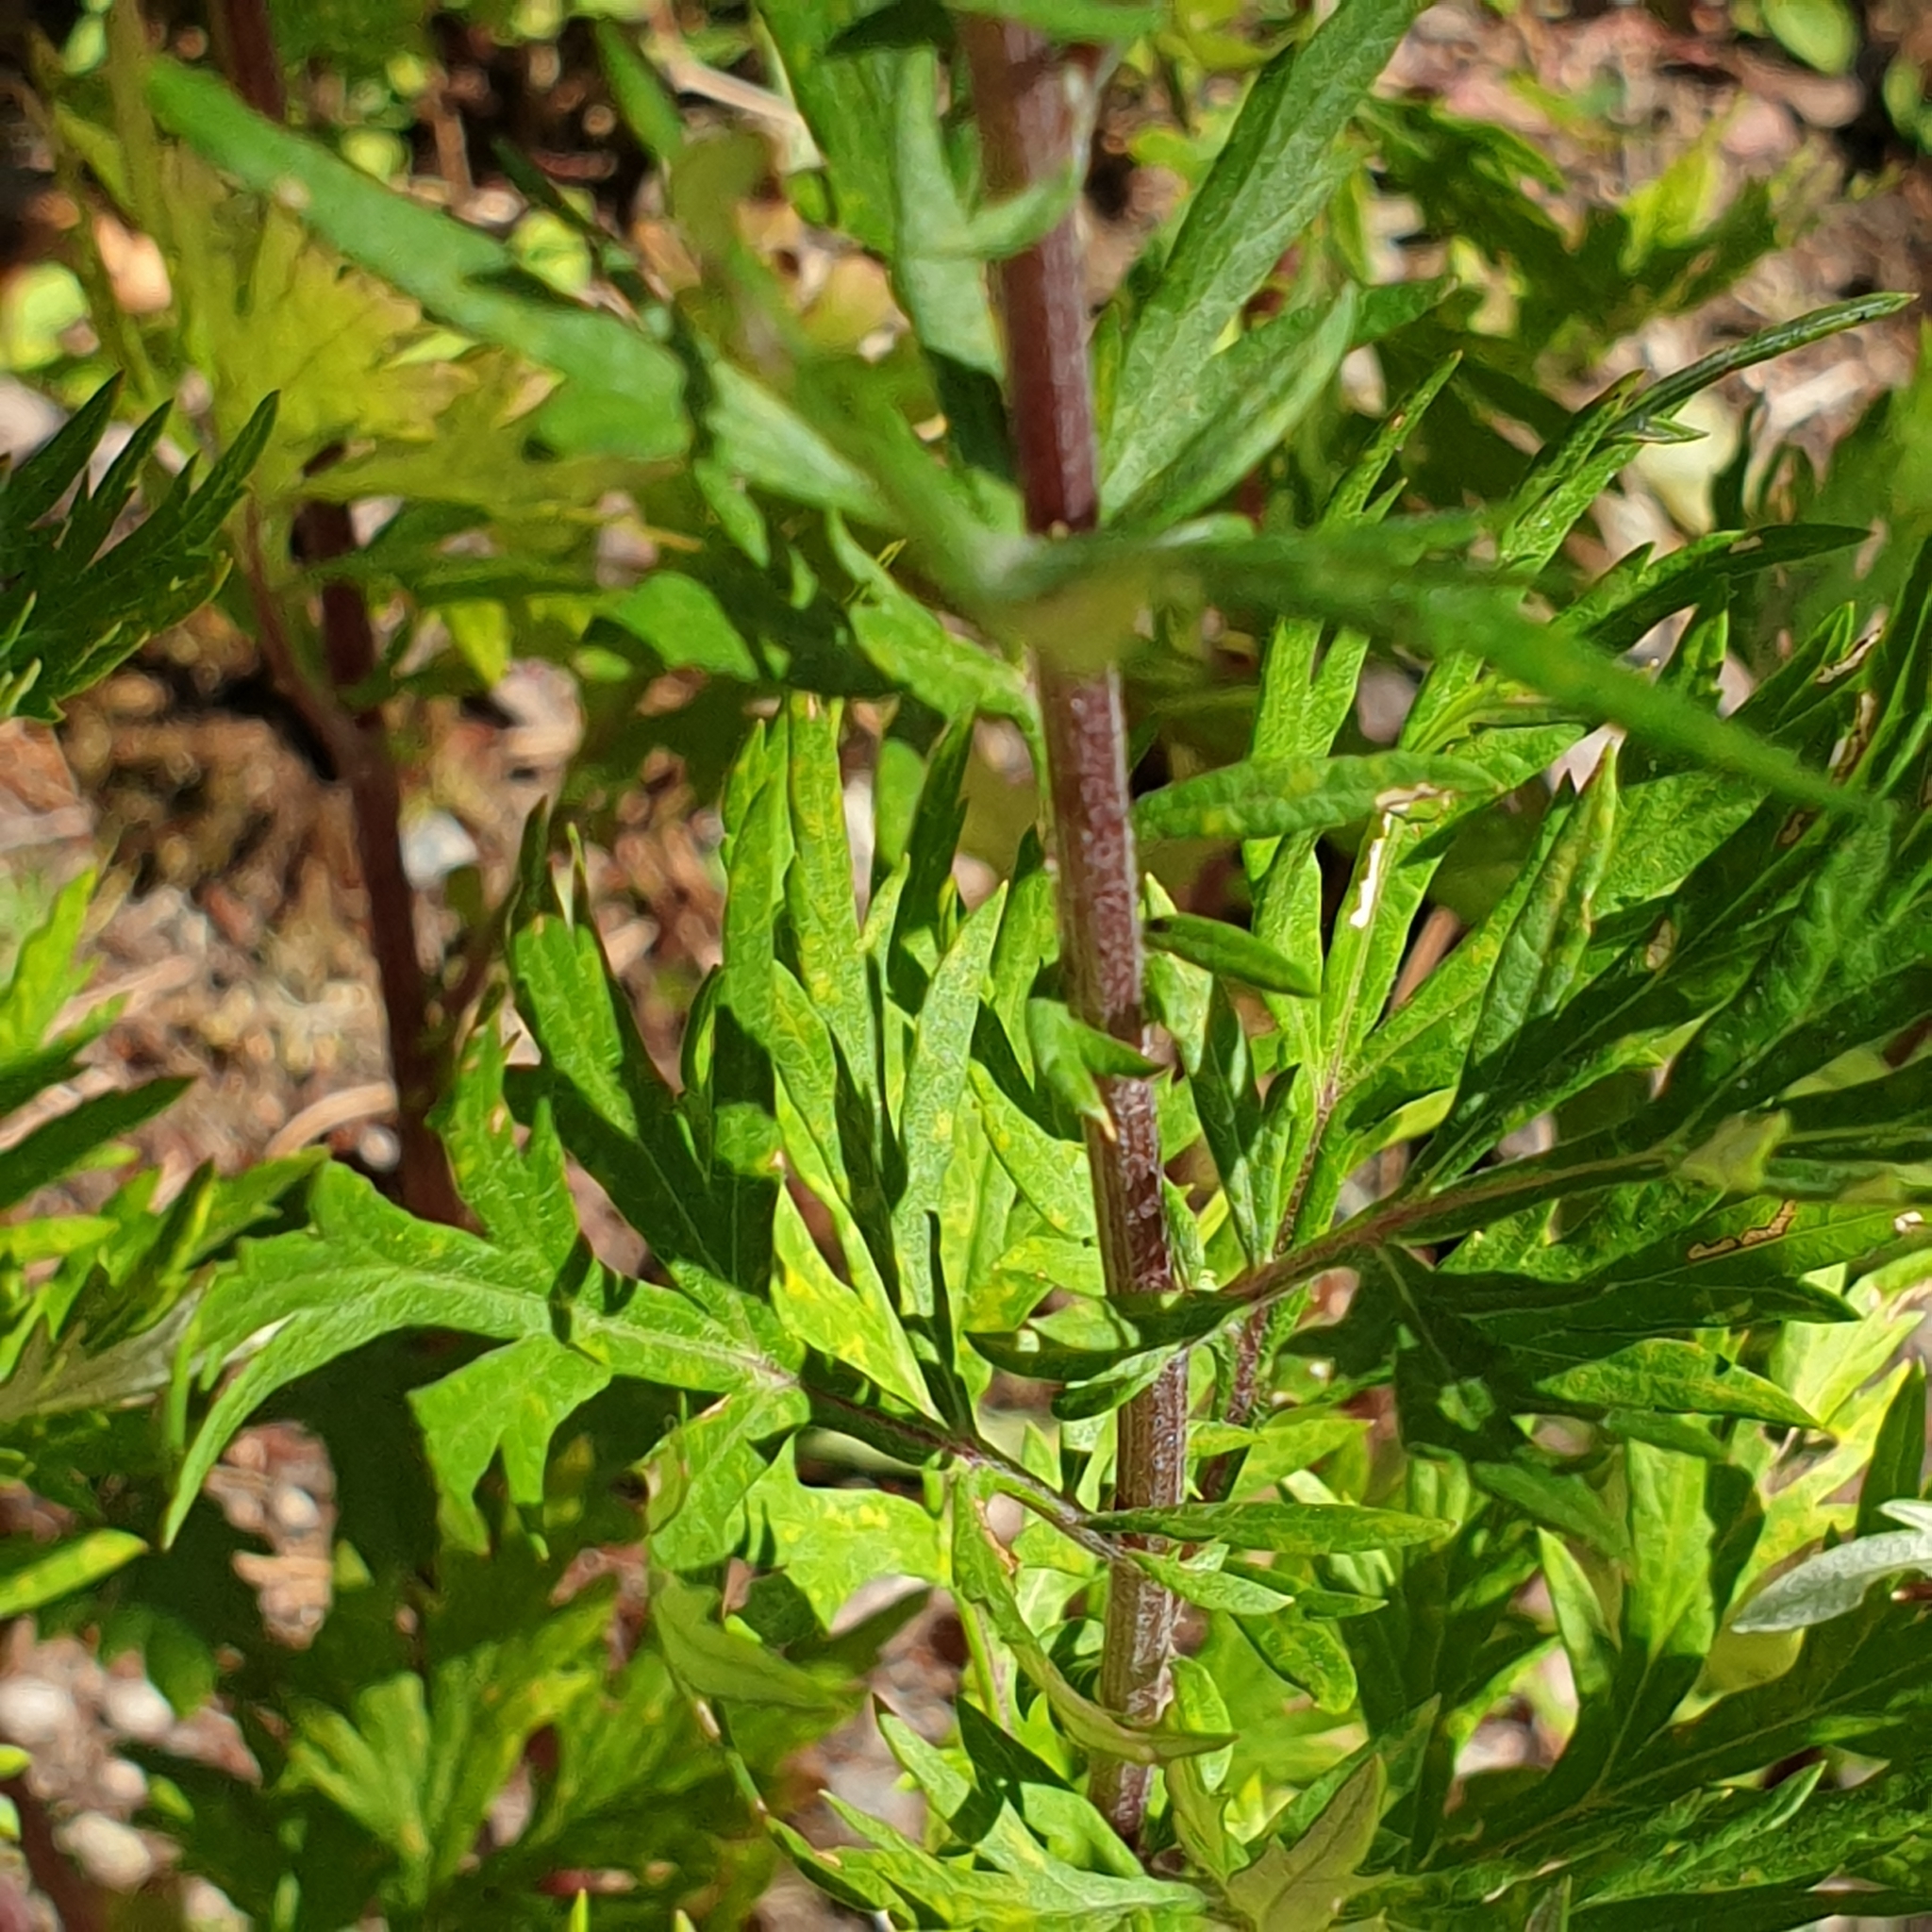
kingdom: Plantae
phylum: Tracheophyta
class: Magnoliopsida
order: Asterales
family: Asteraceae
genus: Artemisia
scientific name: Artemisia vulgaris
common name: Mugwort
